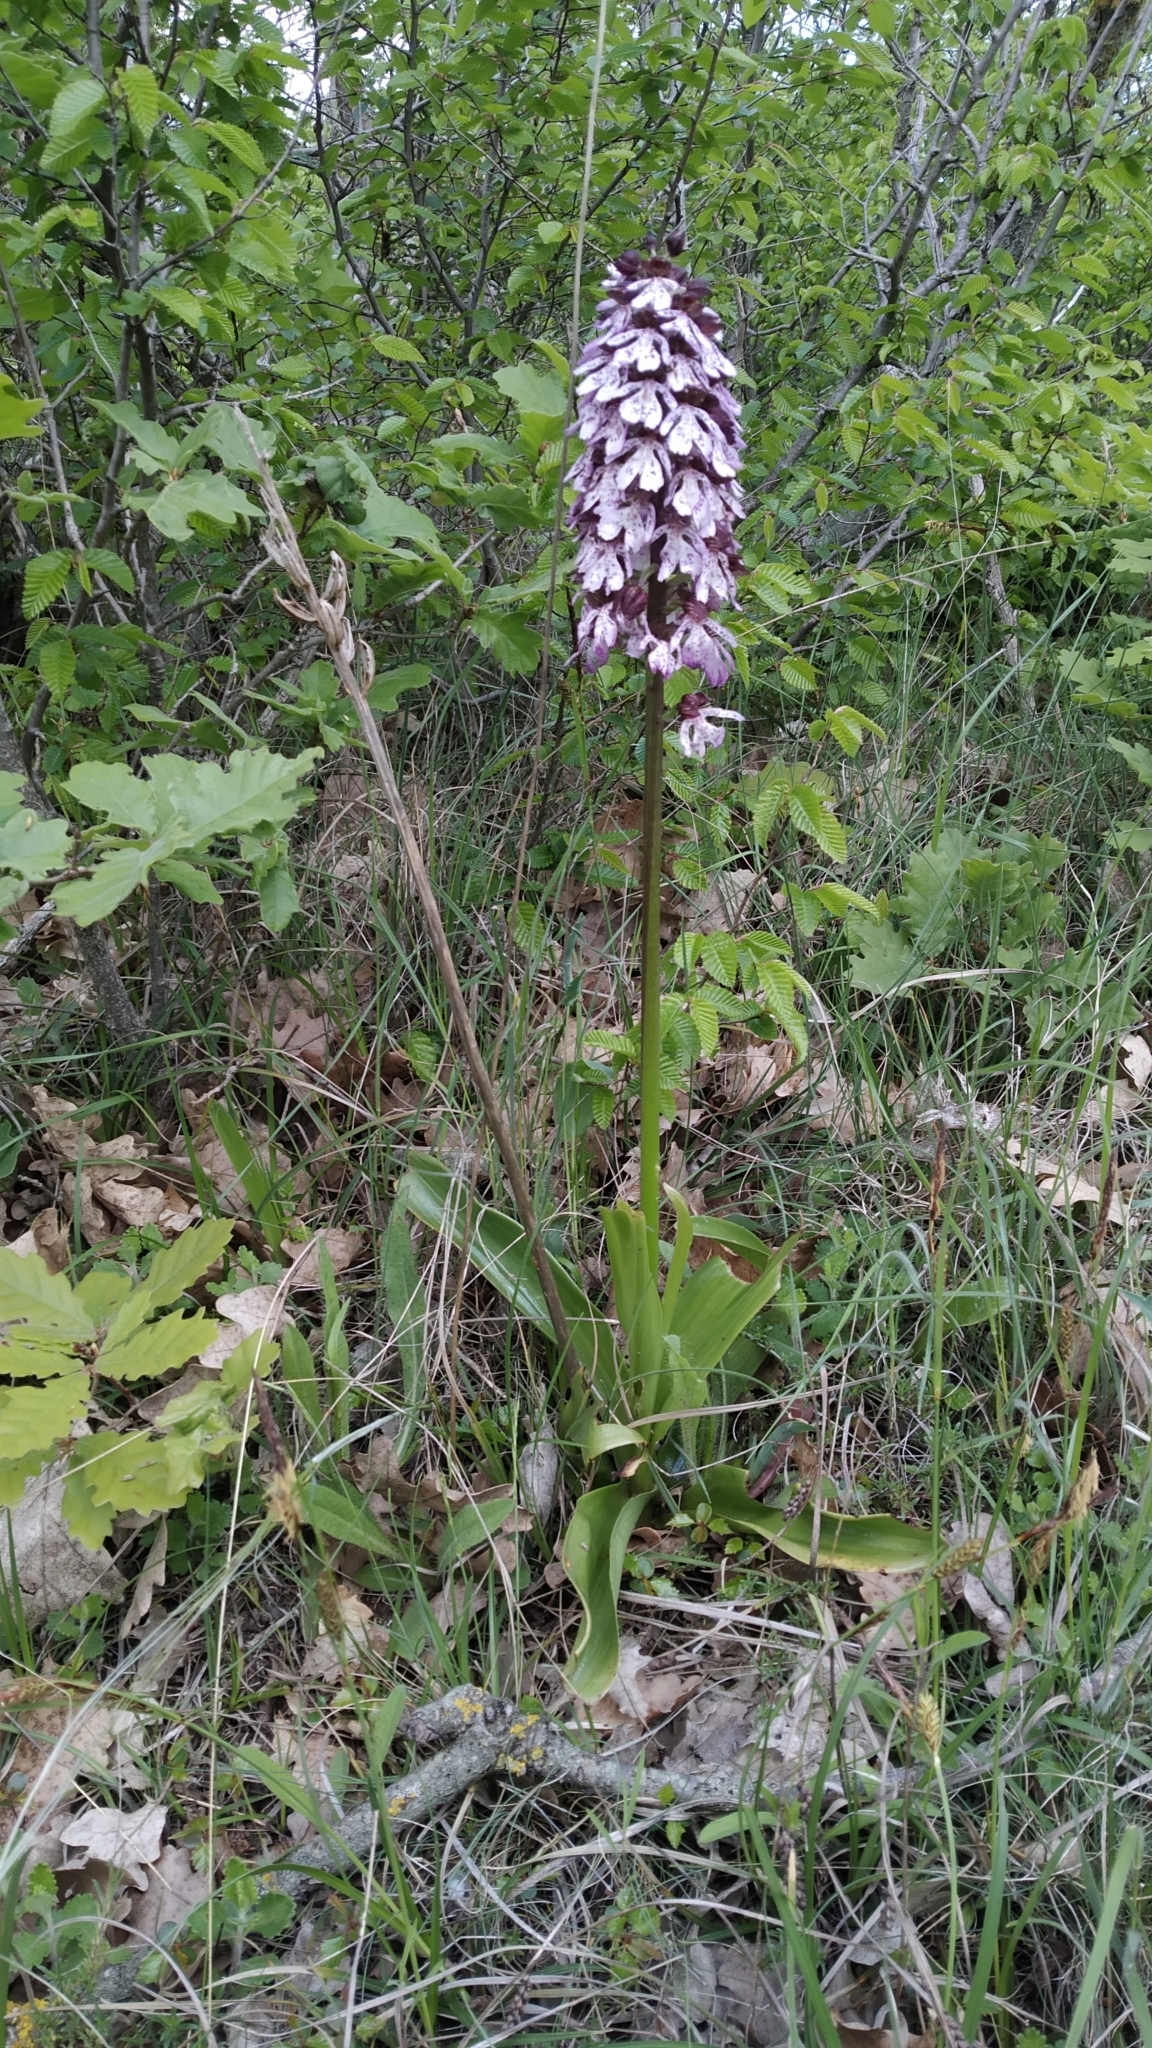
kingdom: Plantae
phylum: Tracheophyta
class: Liliopsida
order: Asparagales
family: Orchidaceae
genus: Orchis
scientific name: Orchis purpurea
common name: Lady orchid
